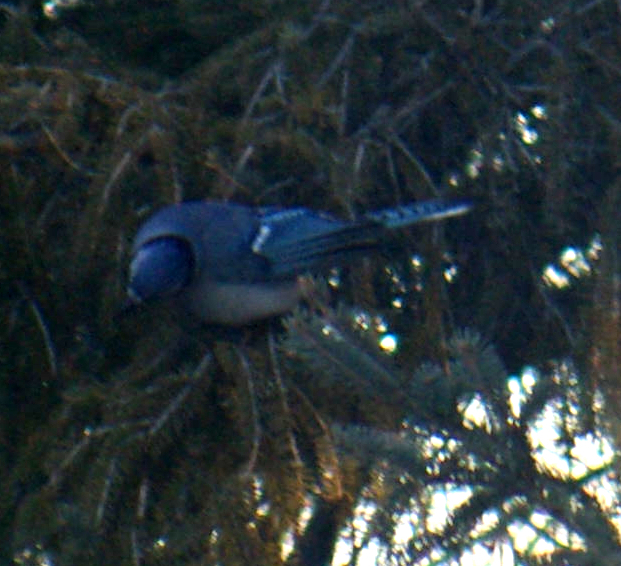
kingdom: Animalia
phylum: Chordata
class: Aves
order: Passeriformes
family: Corvidae
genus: Cyanocitta
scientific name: Cyanocitta cristata
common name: Blue jay
